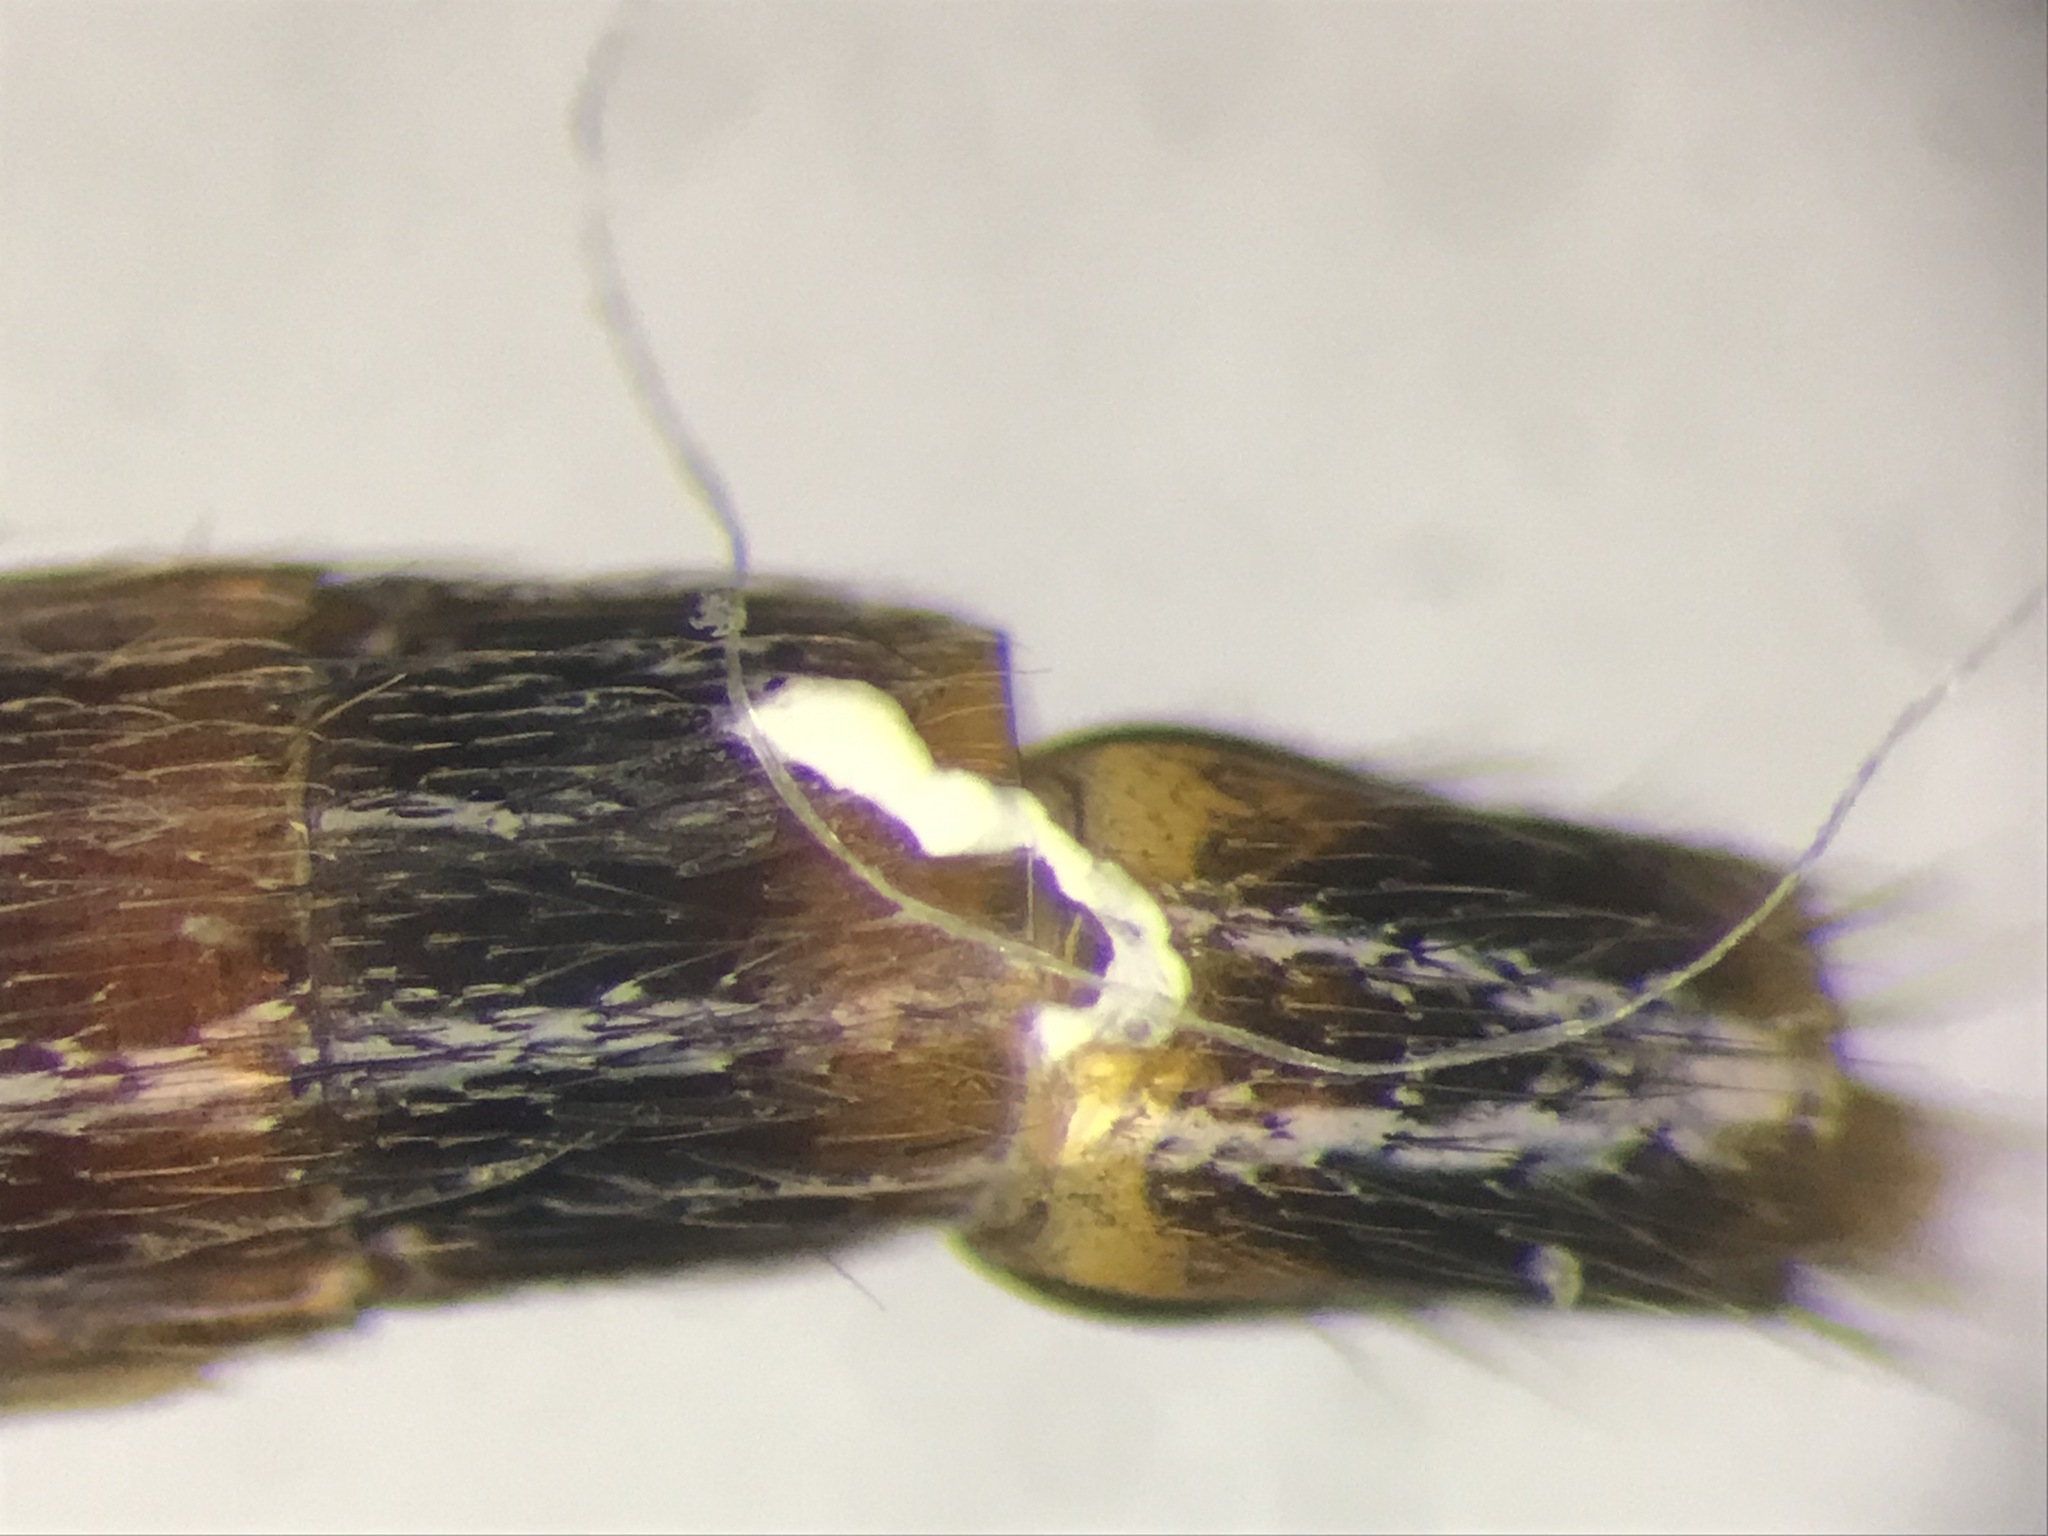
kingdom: Animalia
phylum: Arthropoda
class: Insecta
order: Coleoptera
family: Staphylinidae
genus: Ischnosoma
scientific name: Ischnosoma flavicolle
